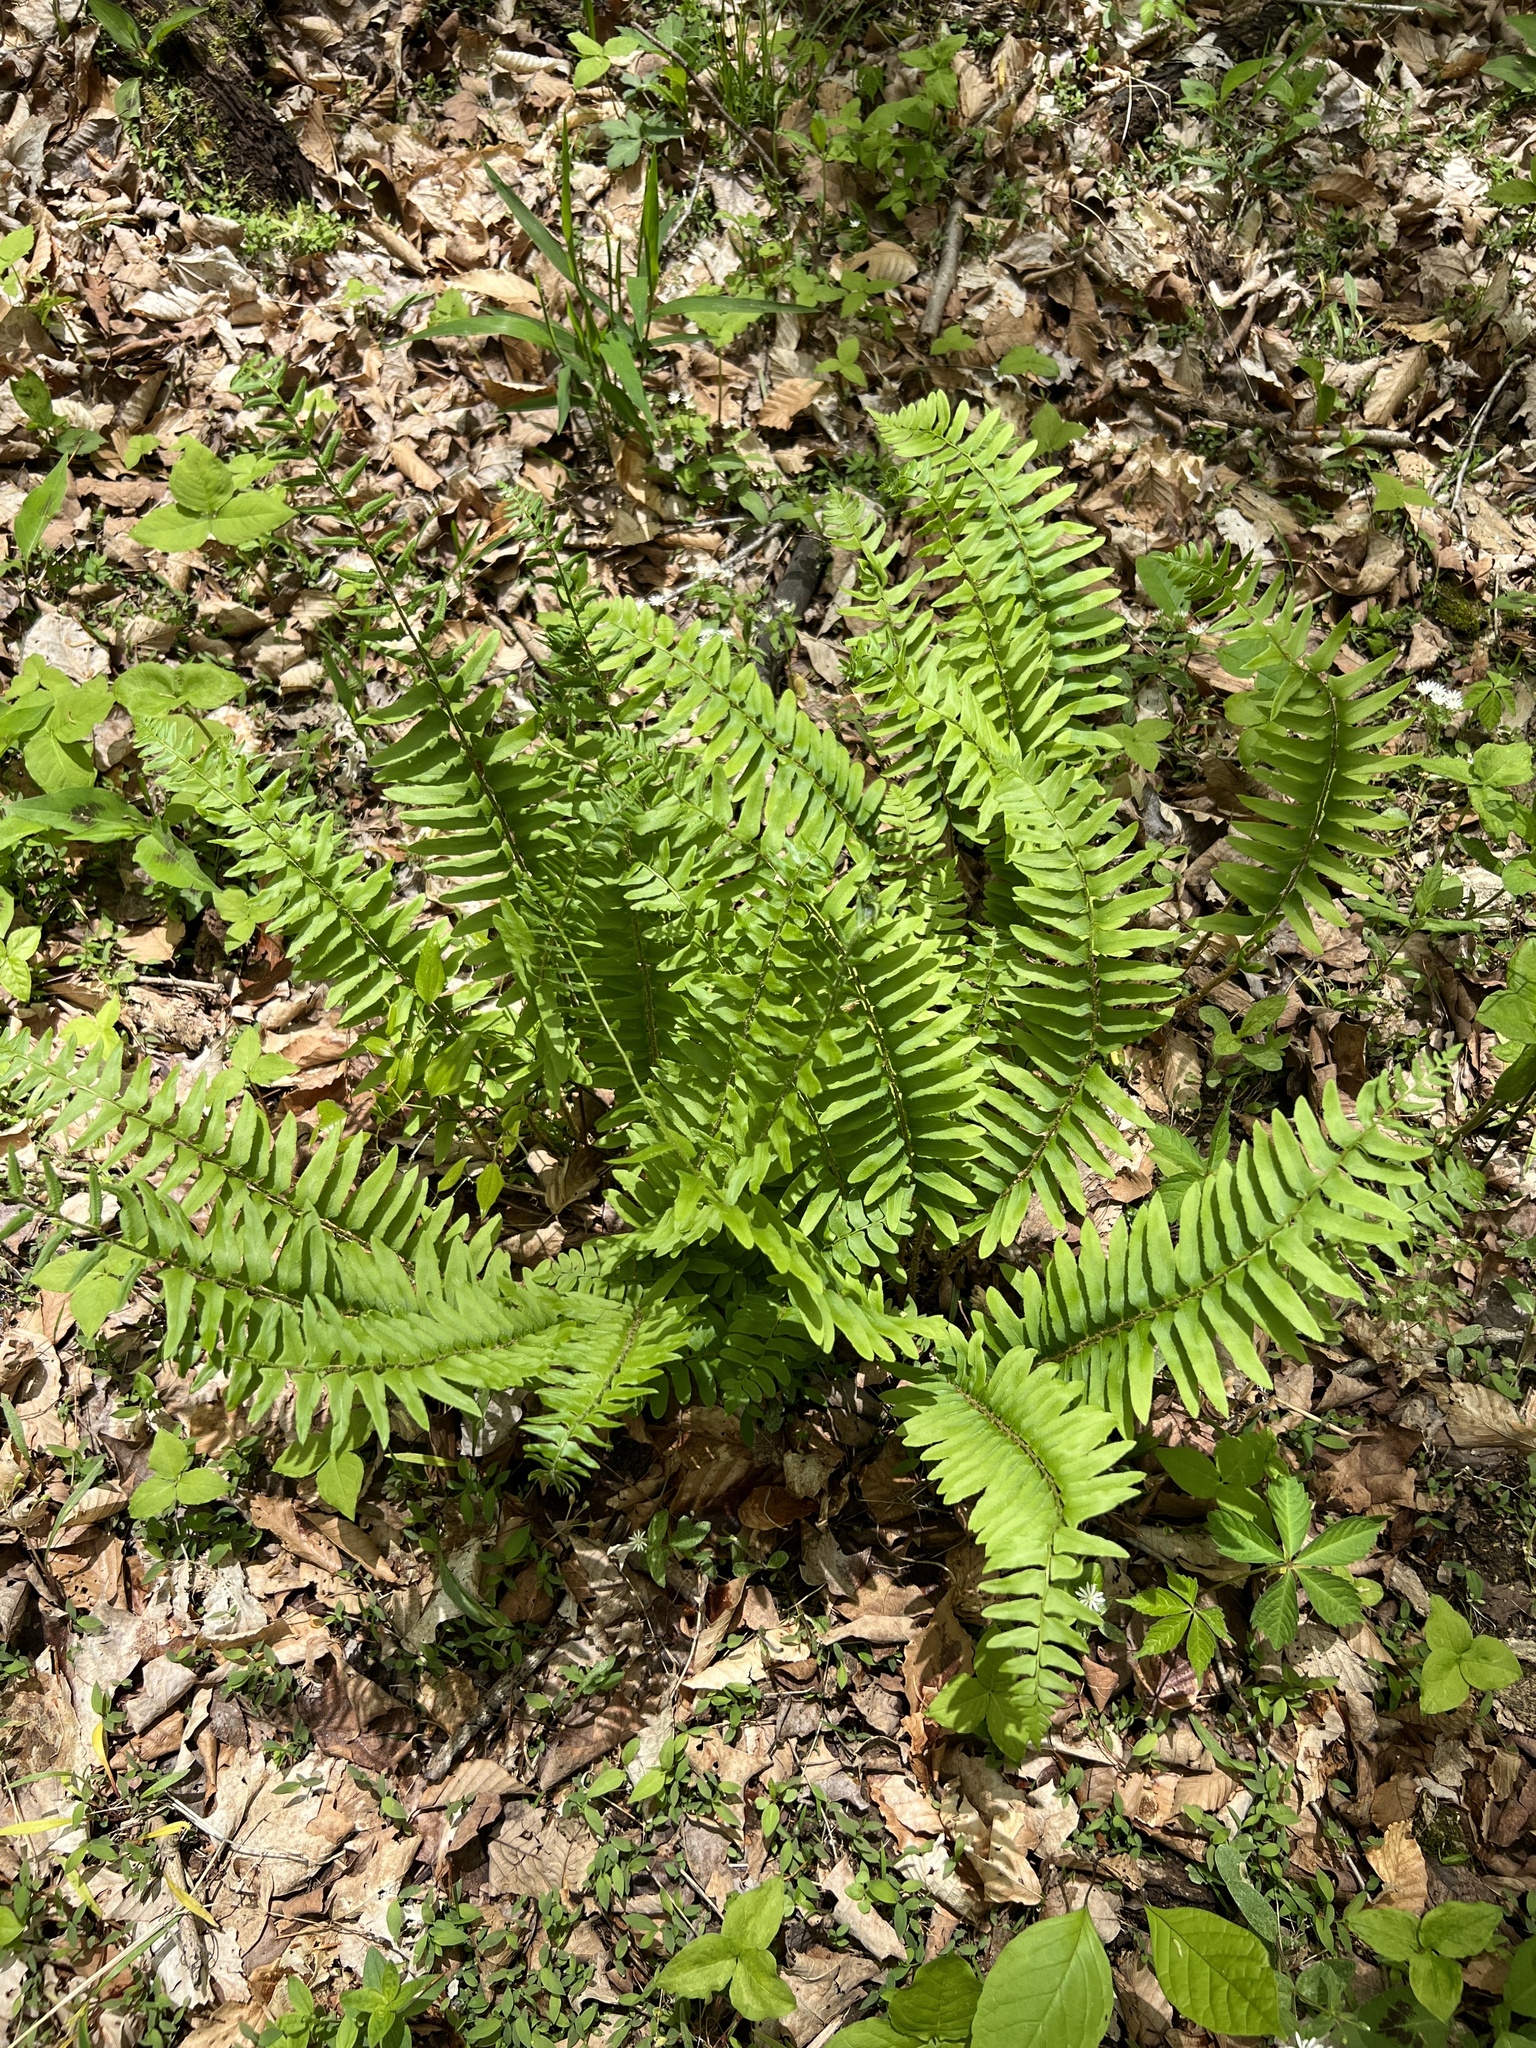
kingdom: Plantae
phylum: Tracheophyta
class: Polypodiopsida
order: Polypodiales
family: Dryopteridaceae
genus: Polystichum
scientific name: Polystichum acrostichoides
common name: Christmas fern
